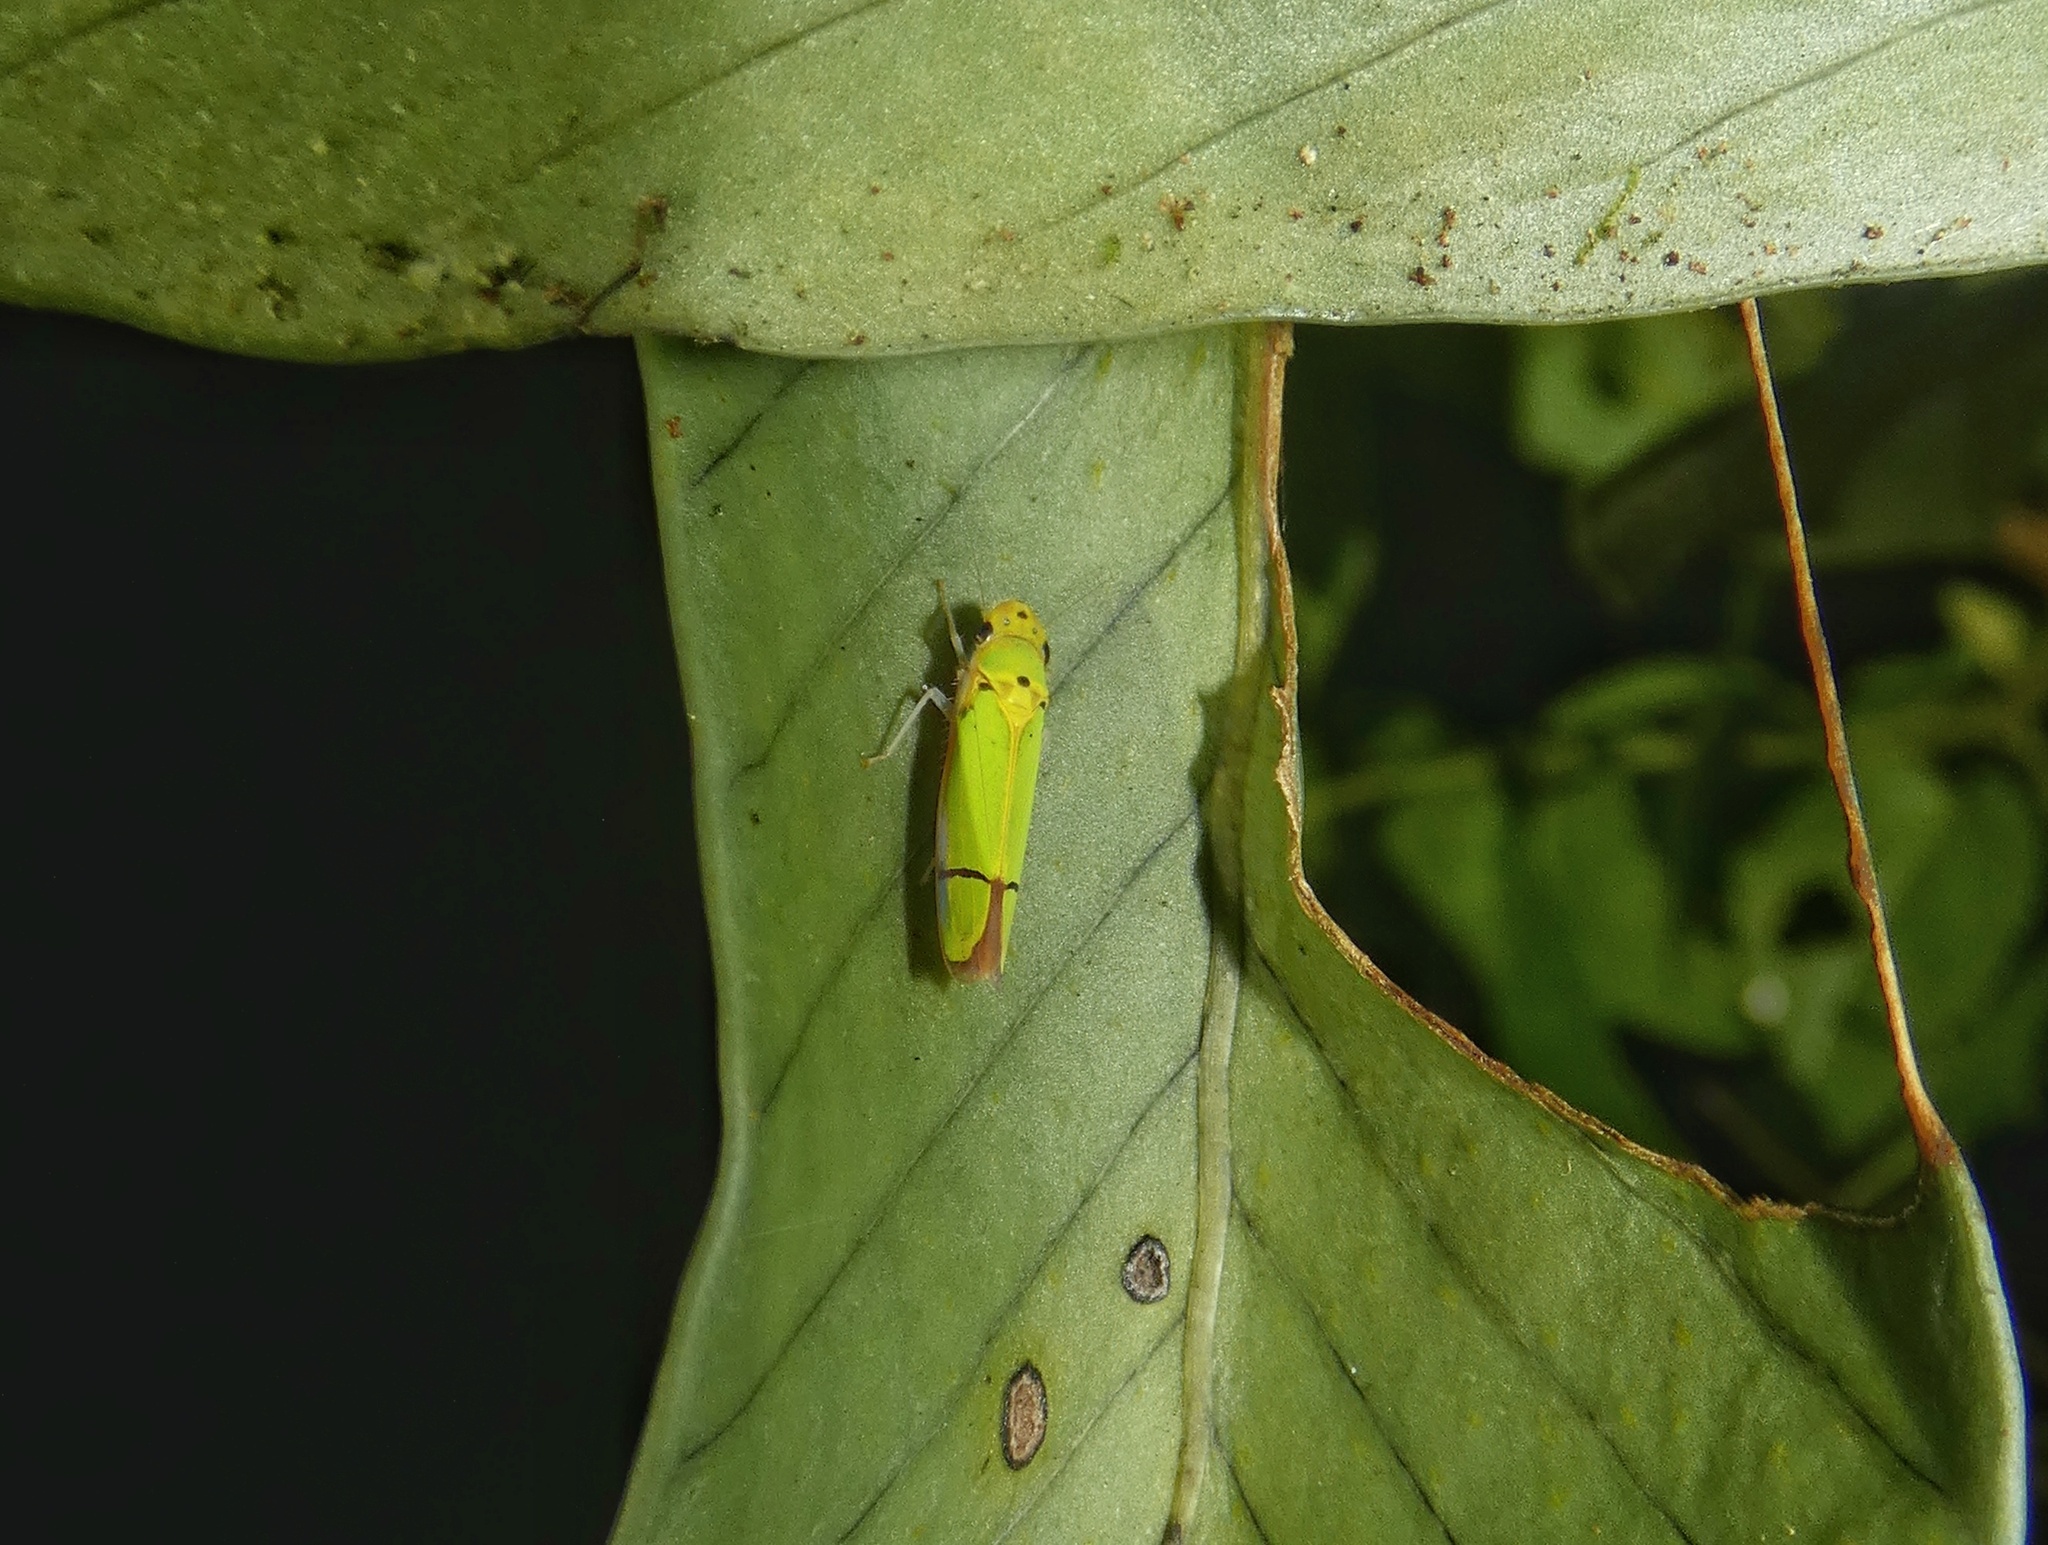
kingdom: Animalia
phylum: Arthropoda
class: Insecta
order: Hemiptera
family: Cicadellidae
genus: Janastana
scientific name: Janastana bilineata
